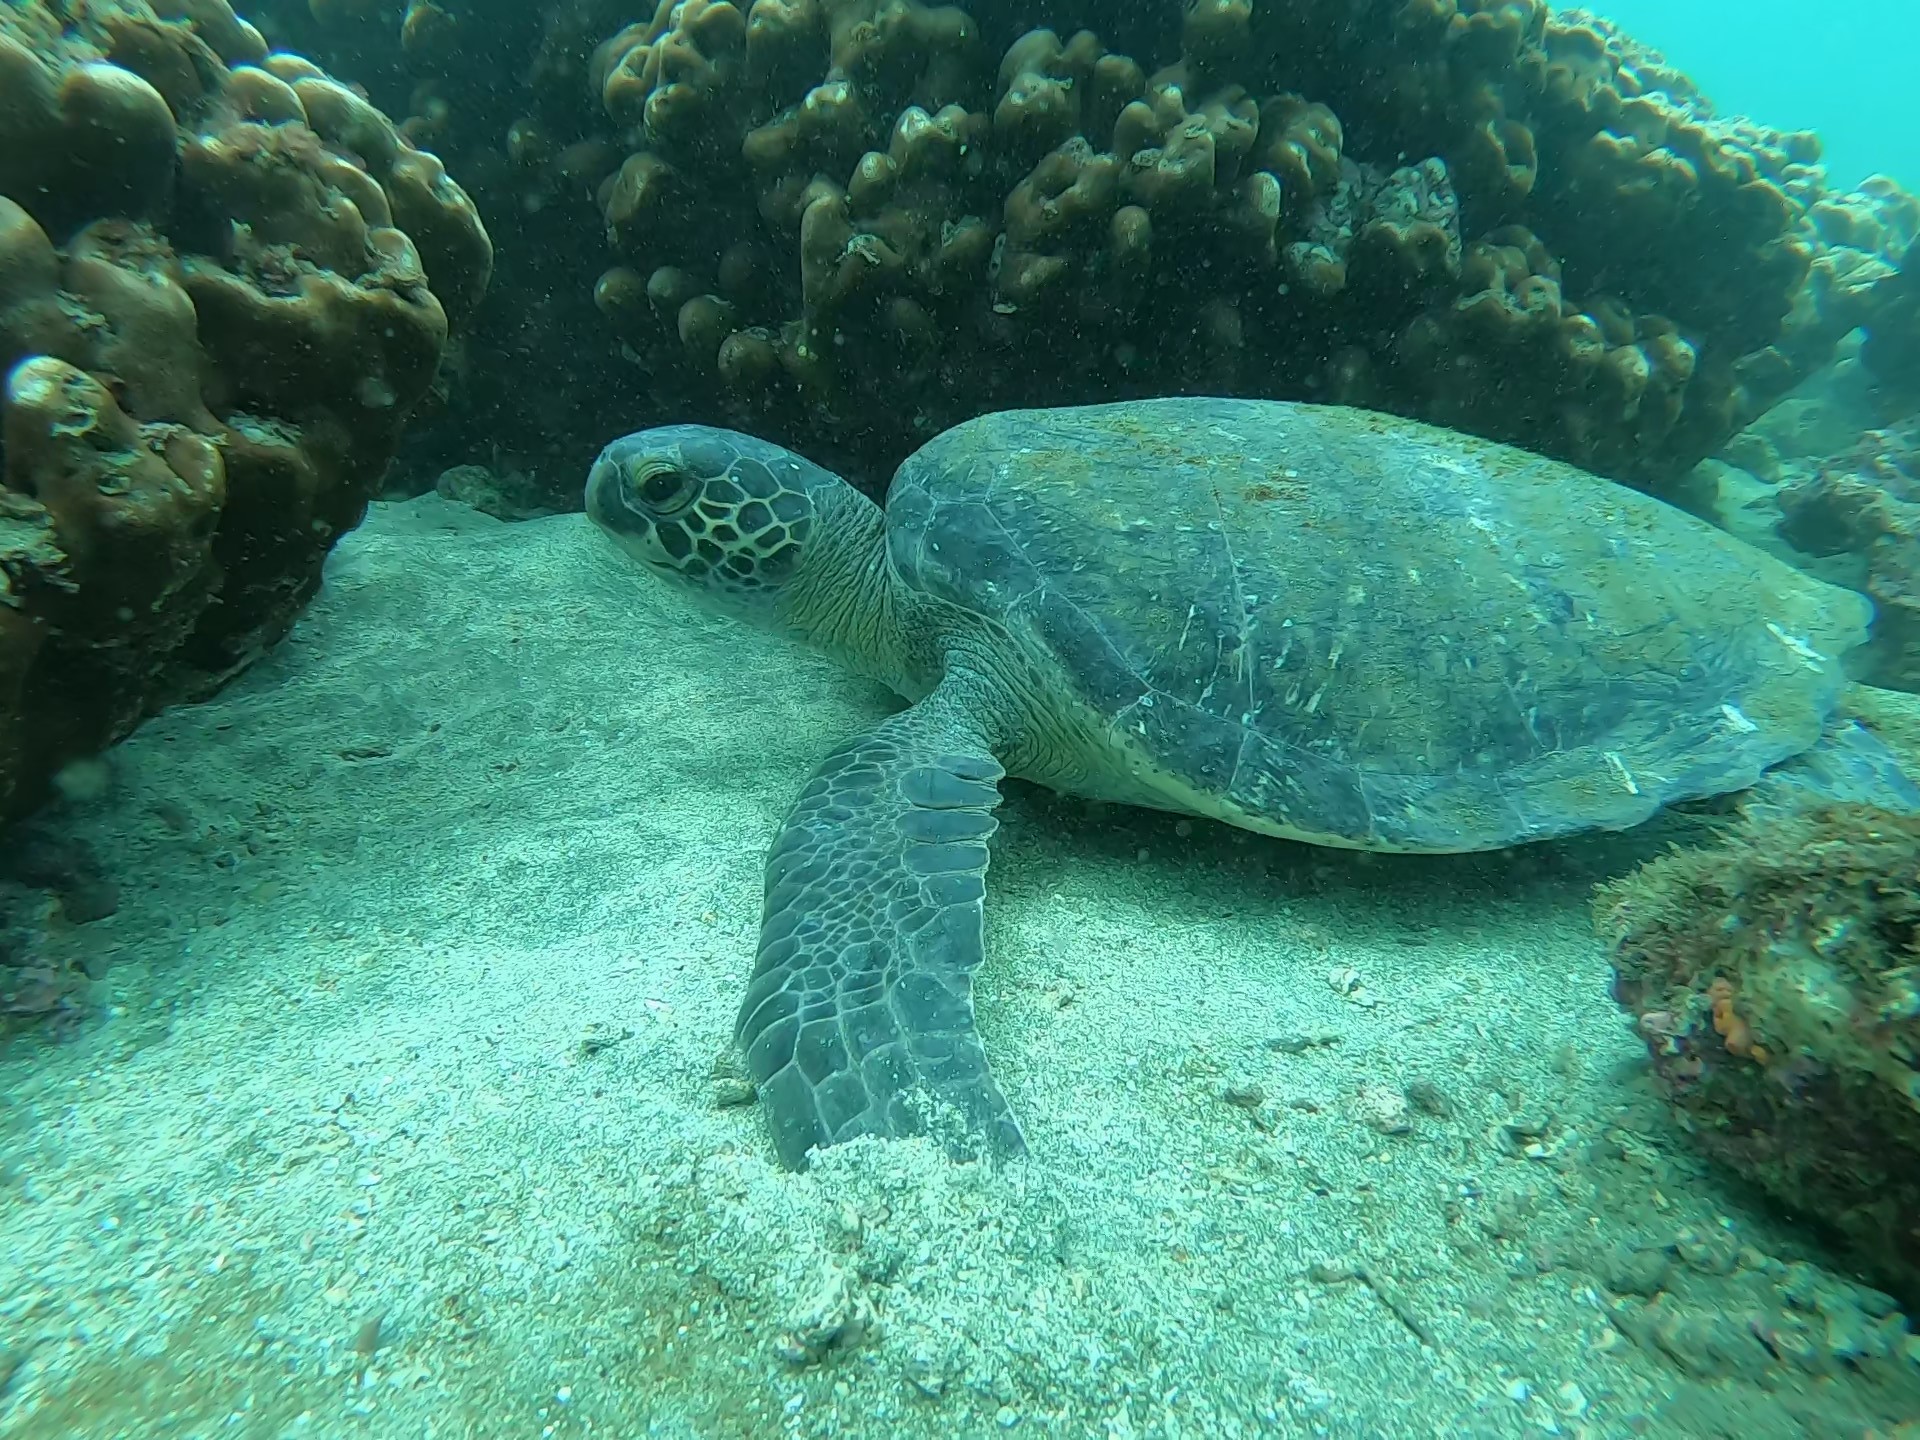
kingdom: Animalia
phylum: Chordata
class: Testudines
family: Cheloniidae
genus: Chelonia
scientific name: Chelonia mydas
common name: Green turtle
